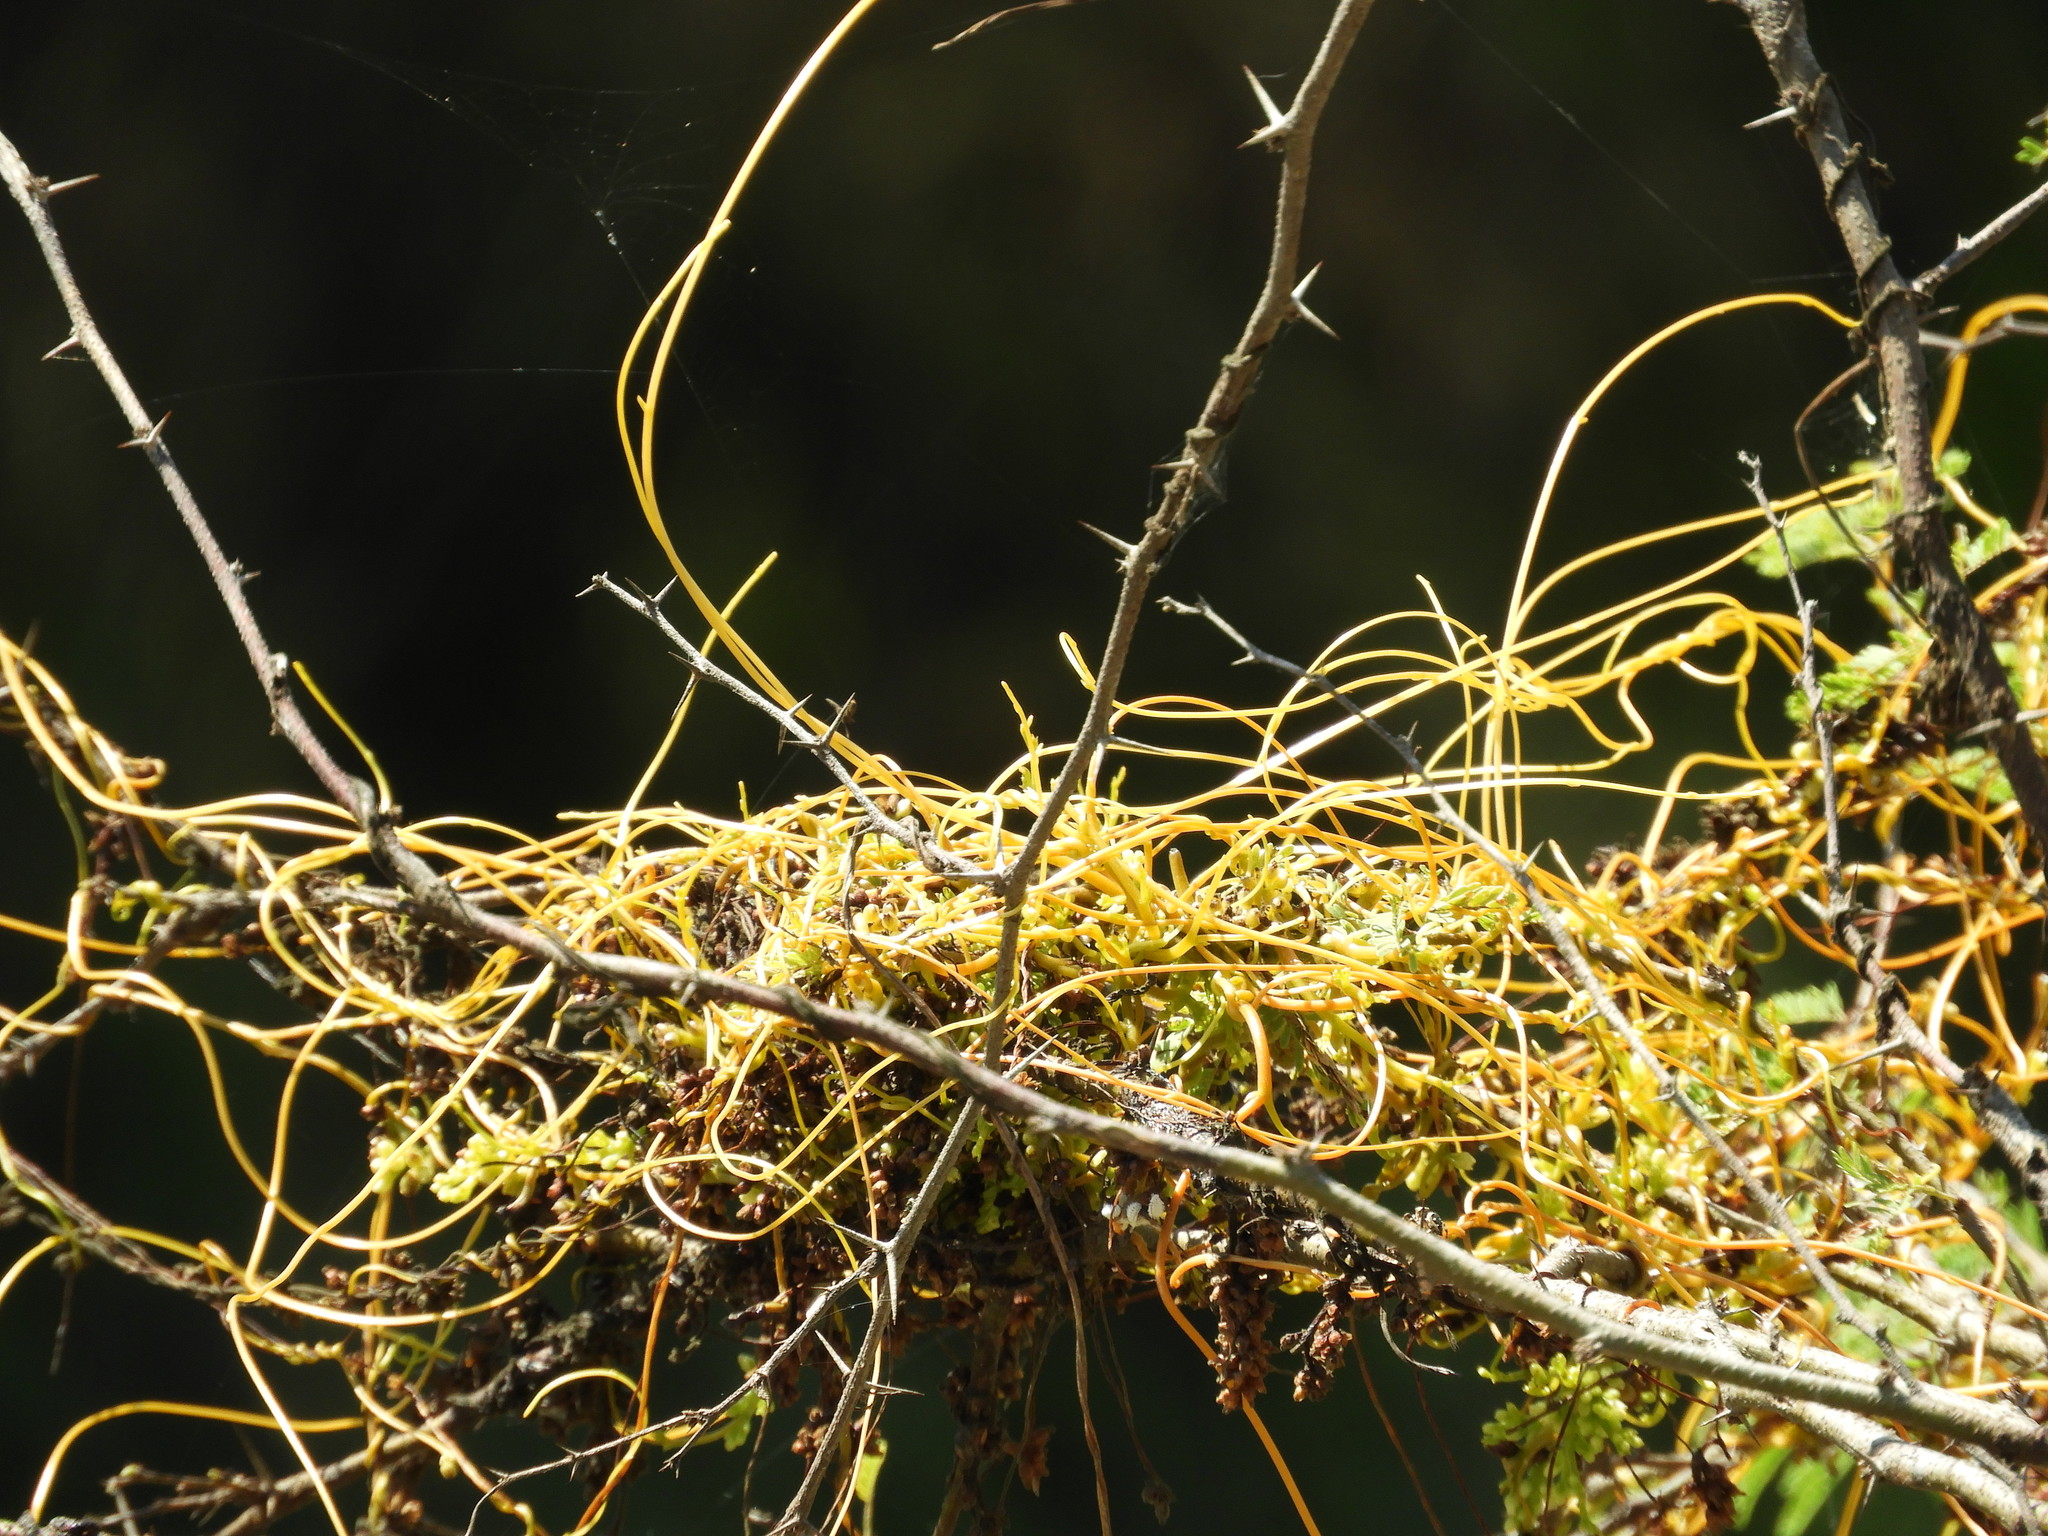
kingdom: Plantae
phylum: Tracheophyta
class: Magnoliopsida
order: Solanales
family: Convolvulaceae
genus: Cuscuta
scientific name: Cuscuta
